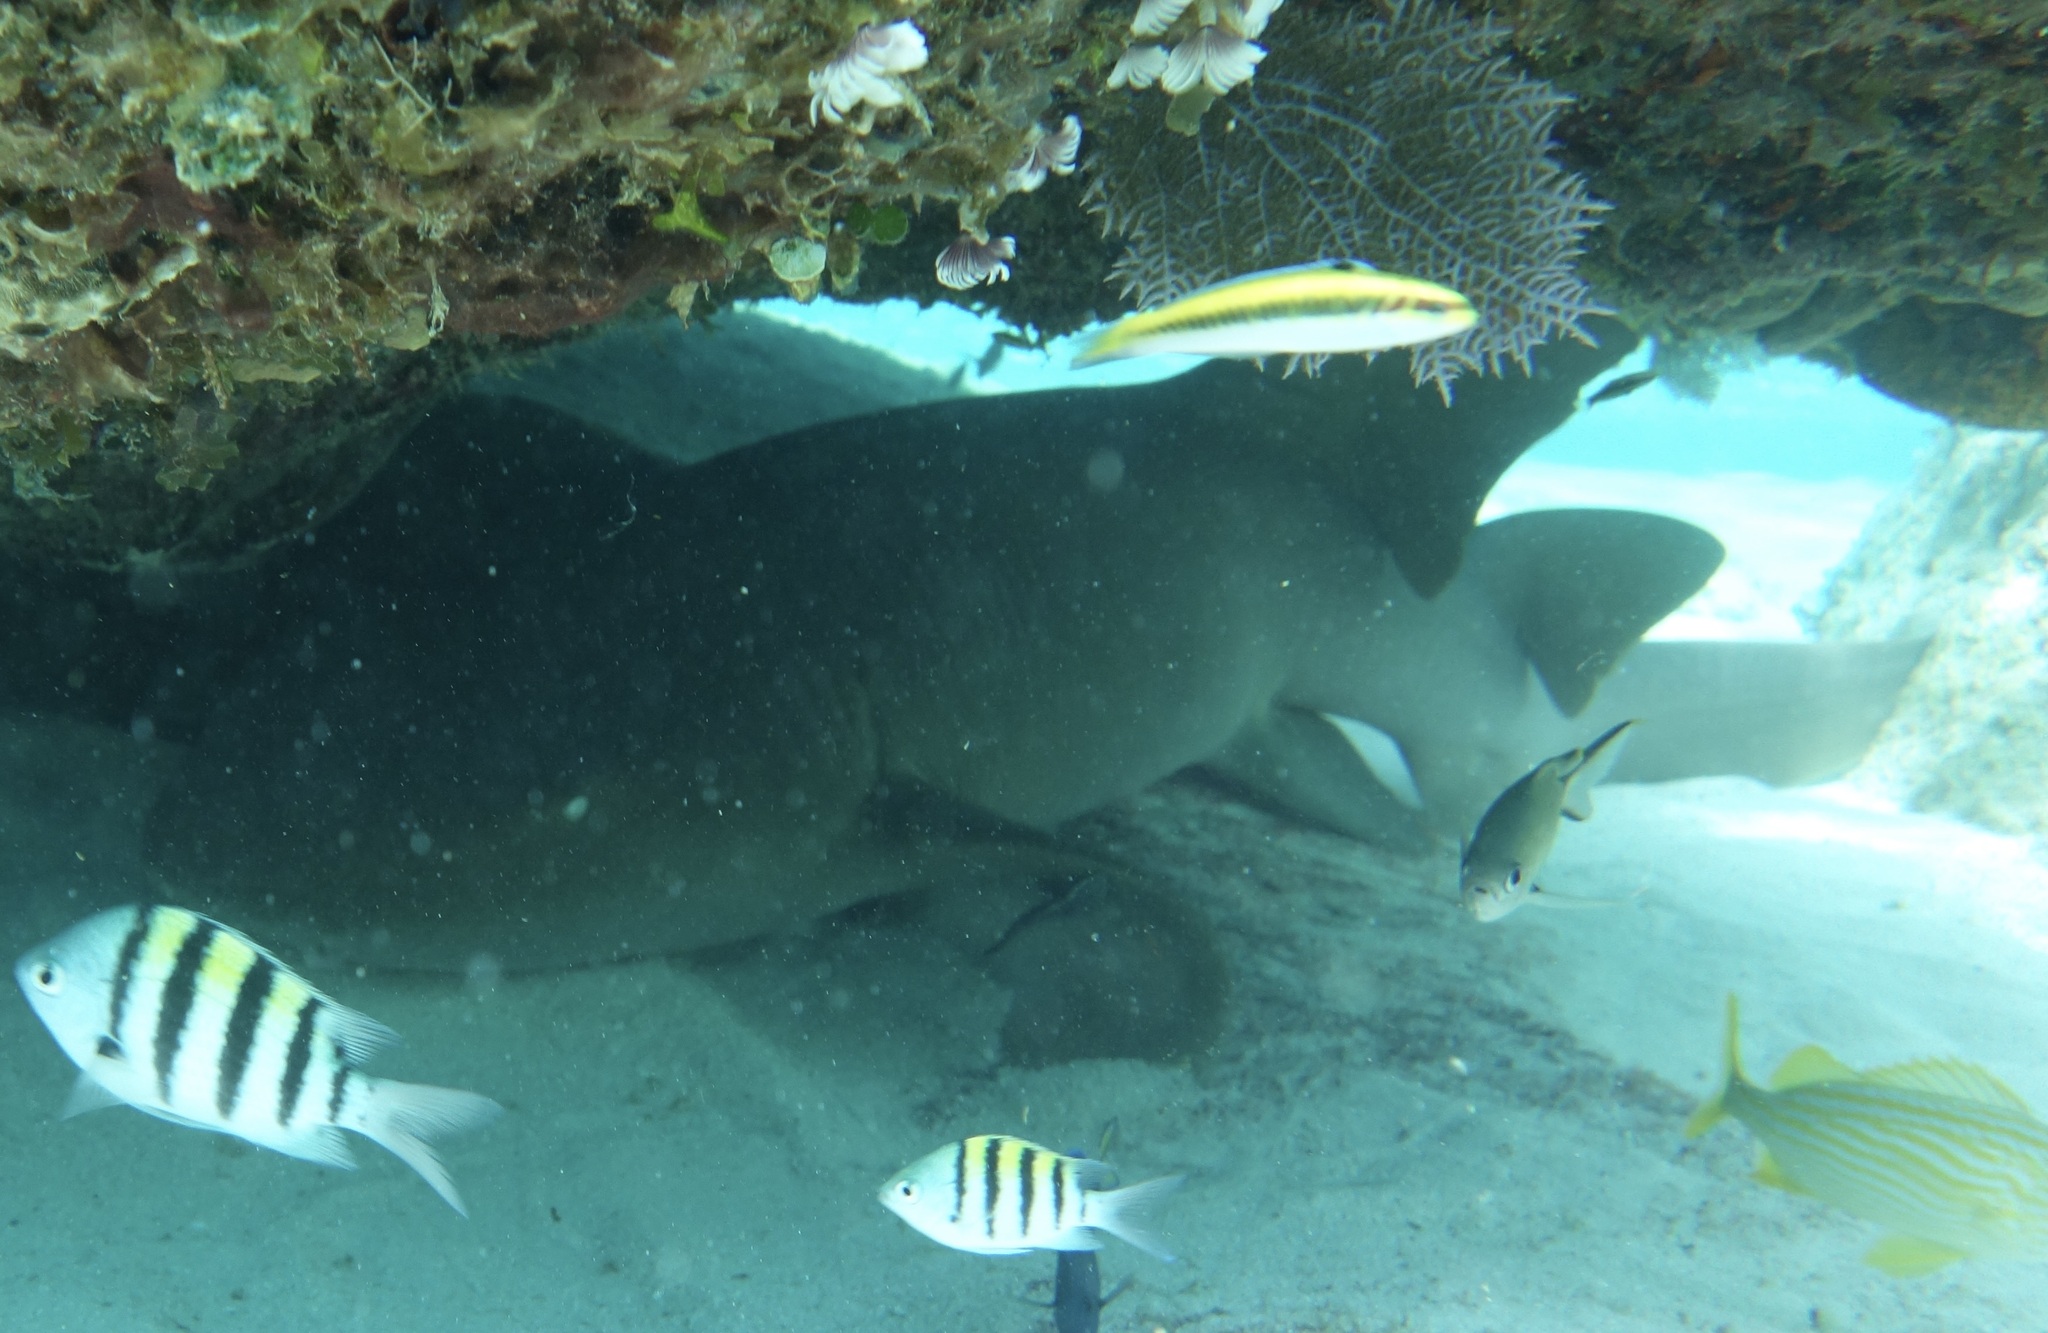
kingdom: Animalia
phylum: Chordata
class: Elasmobranchii
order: Orectolobiformes
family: Ginglymostomatidae
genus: Ginglymostoma
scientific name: Ginglymostoma cirratum
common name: Nurse shark
